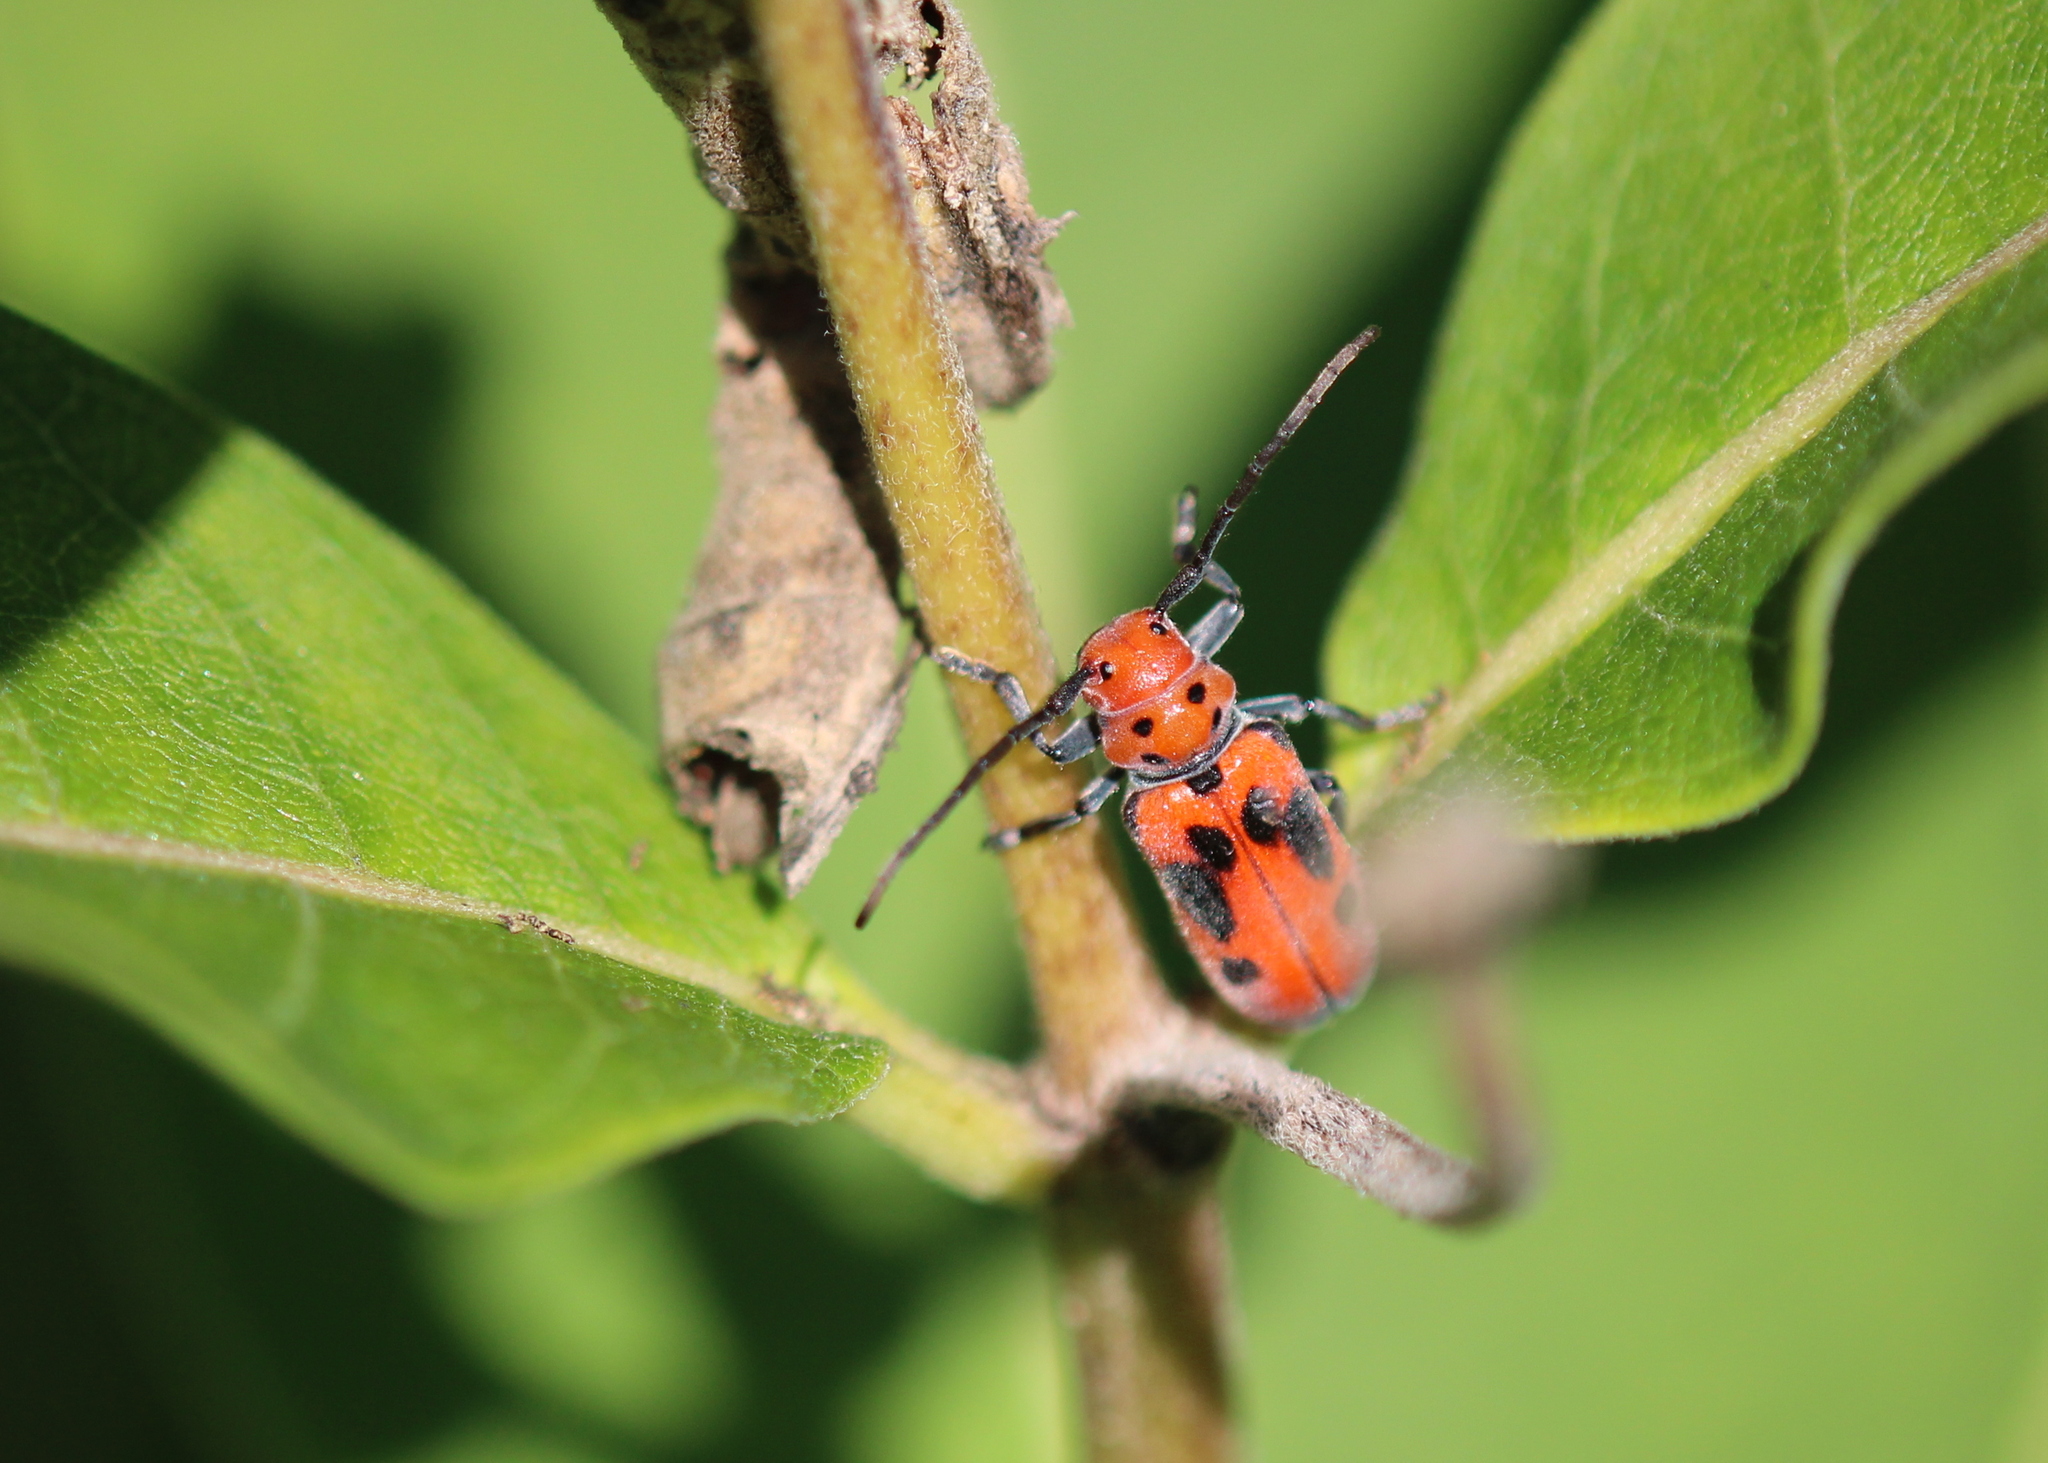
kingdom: Animalia
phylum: Arthropoda
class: Insecta
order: Coleoptera
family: Cerambycidae
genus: Tetraopes
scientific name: Tetraopes tetrophthalmus
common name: Red milkweed beetle
